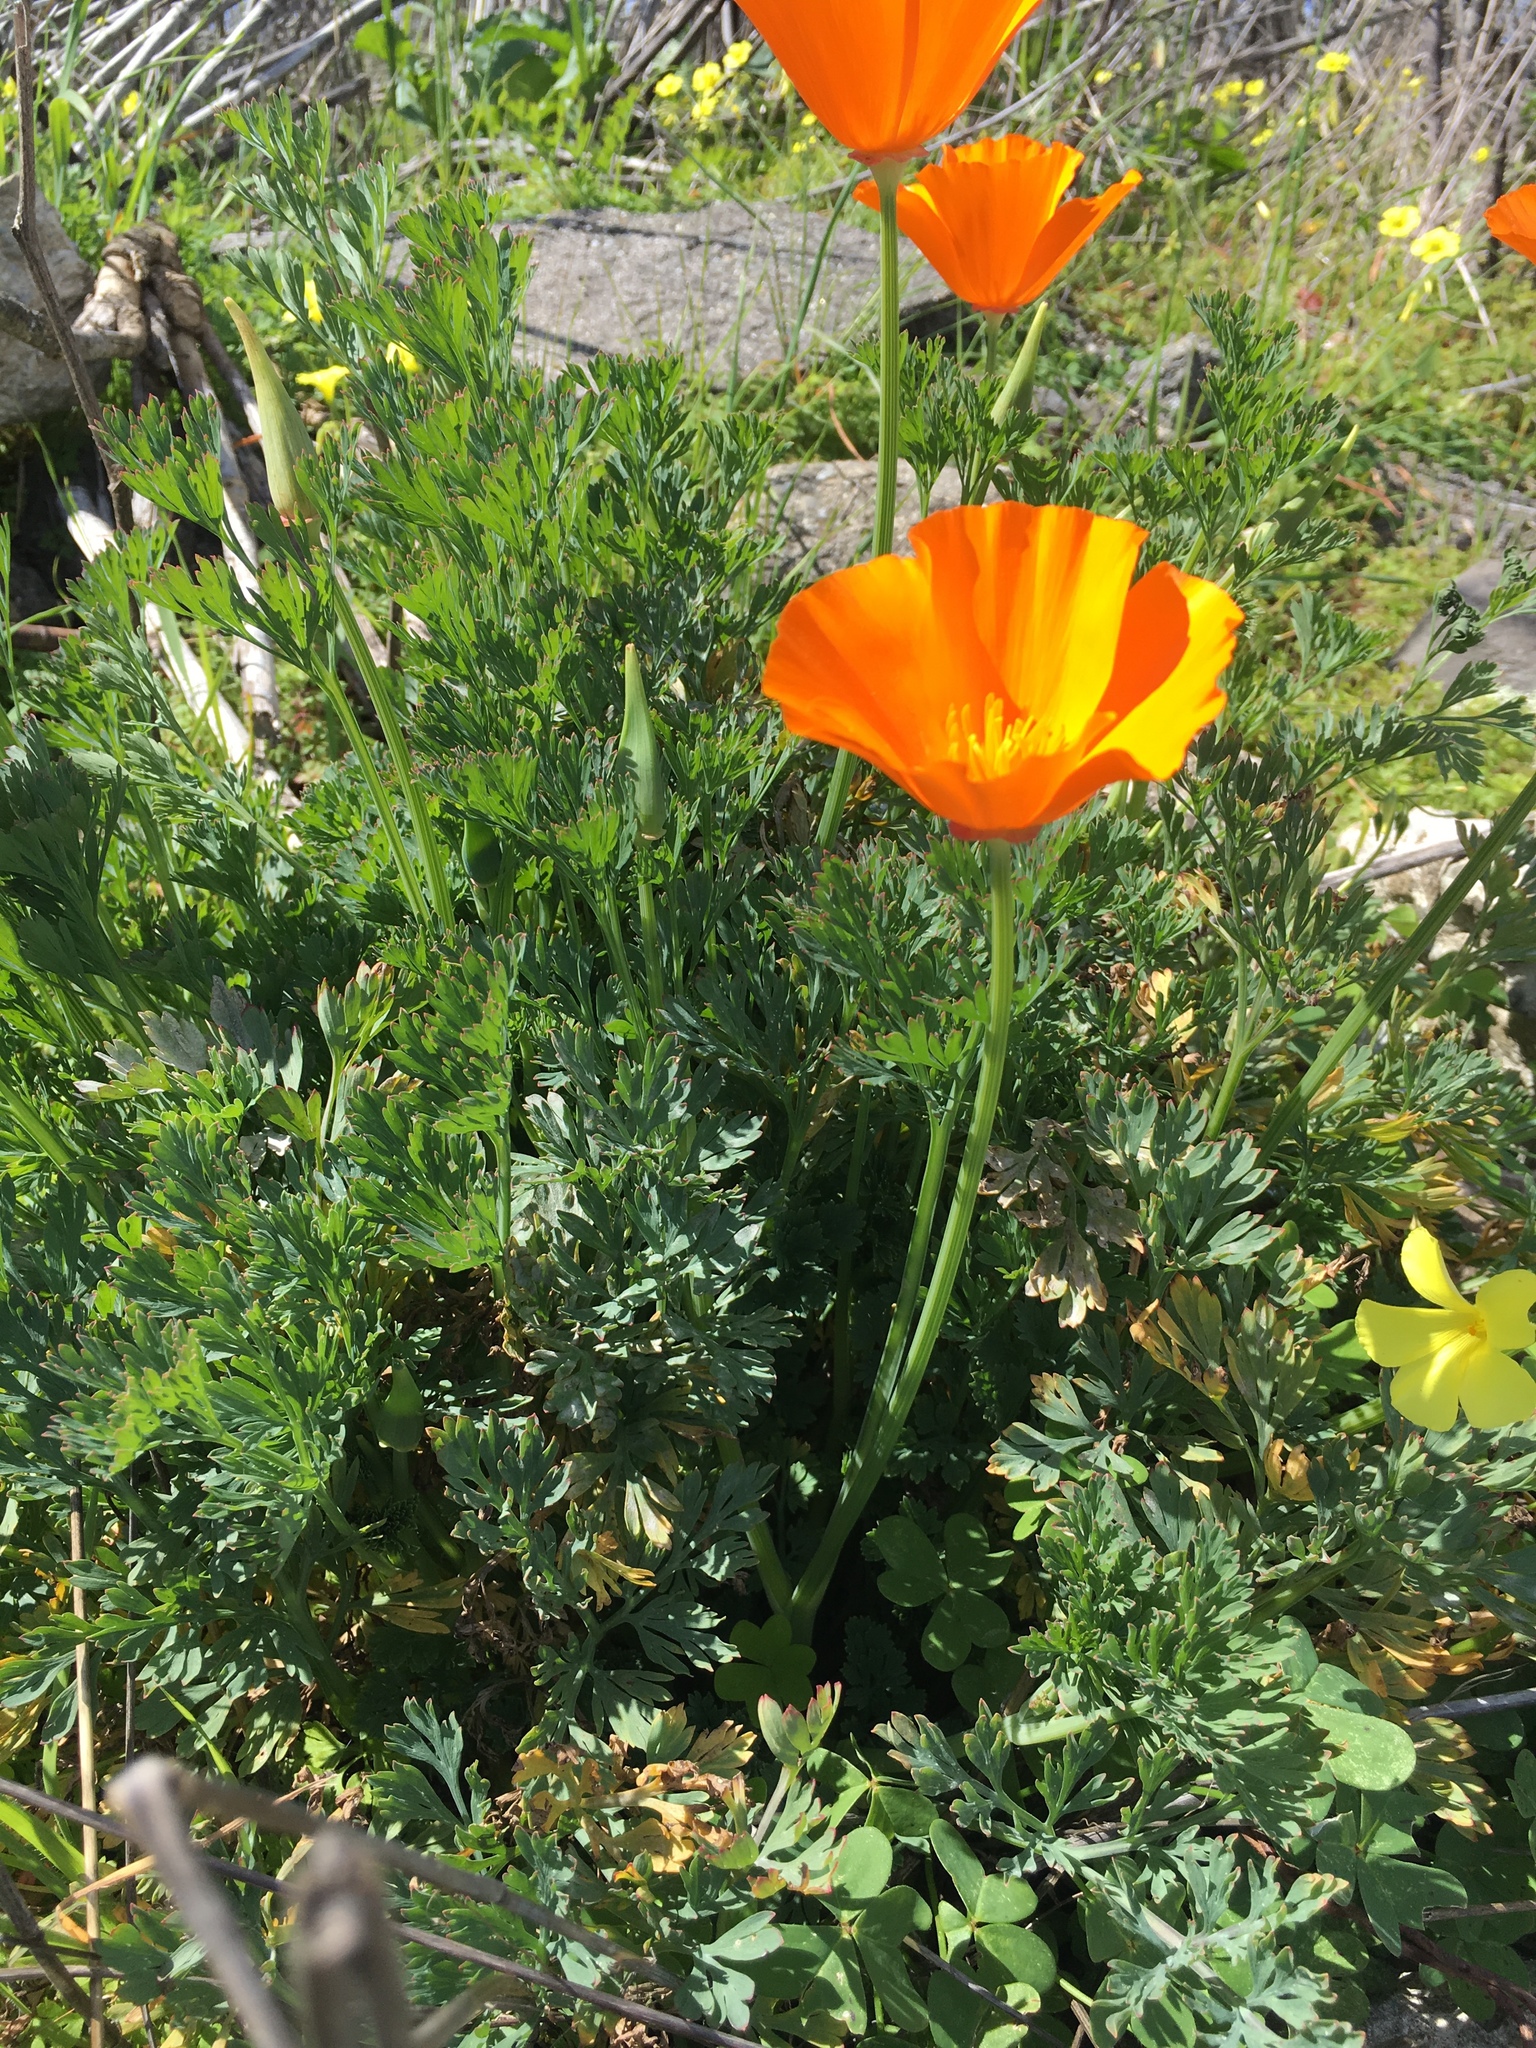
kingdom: Plantae
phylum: Tracheophyta
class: Magnoliopsida
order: Ranunculales
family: Papaveraceae
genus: Eschscholzia
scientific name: Eschscholzia californica
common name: California poppy
